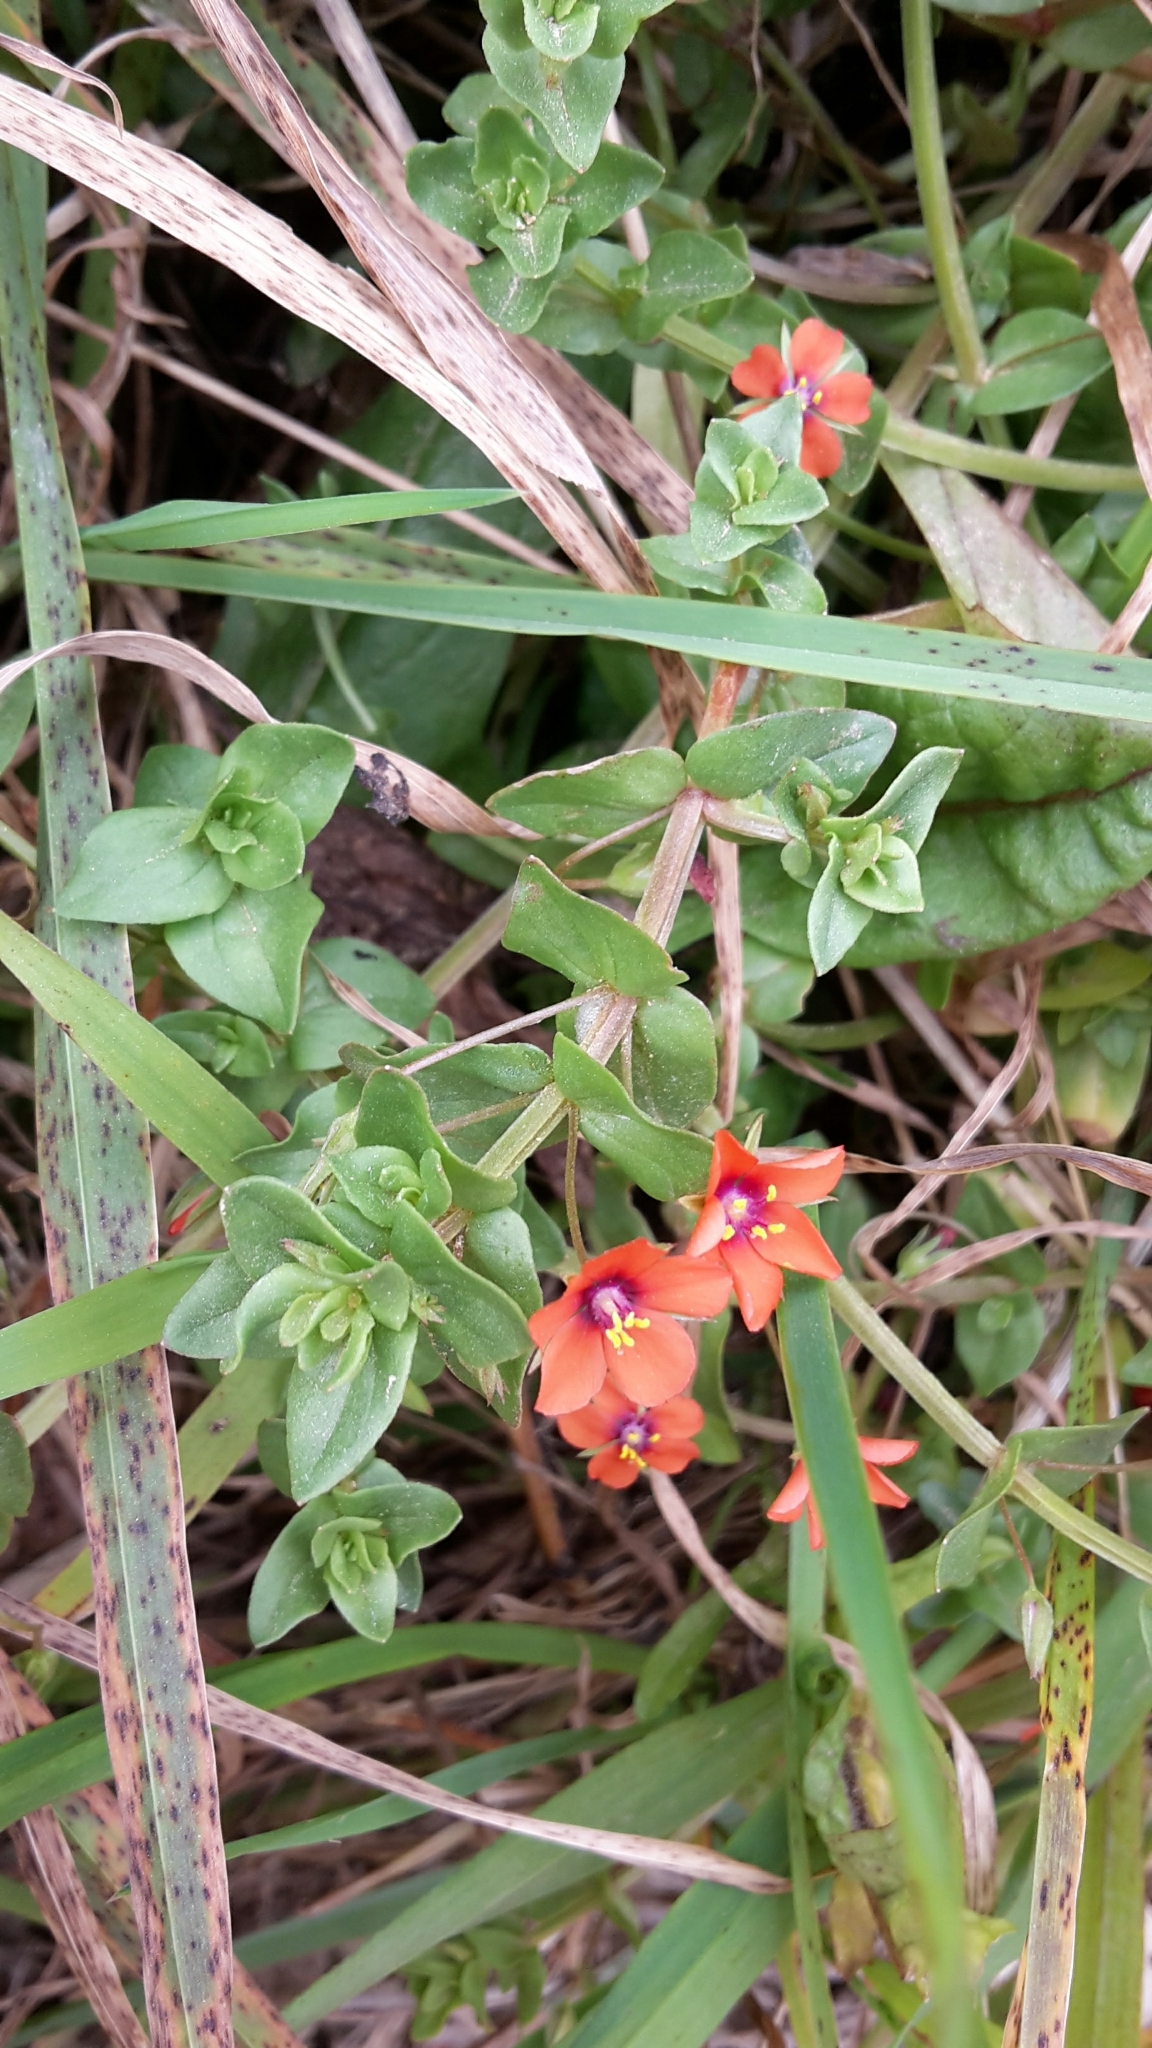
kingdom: Plantae
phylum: Tracheophyta
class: Magnoliopsida
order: Ericales
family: Primulaceae
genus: Lysimachia
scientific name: Lysimachia arvensis
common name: Scarlet pimpernel
